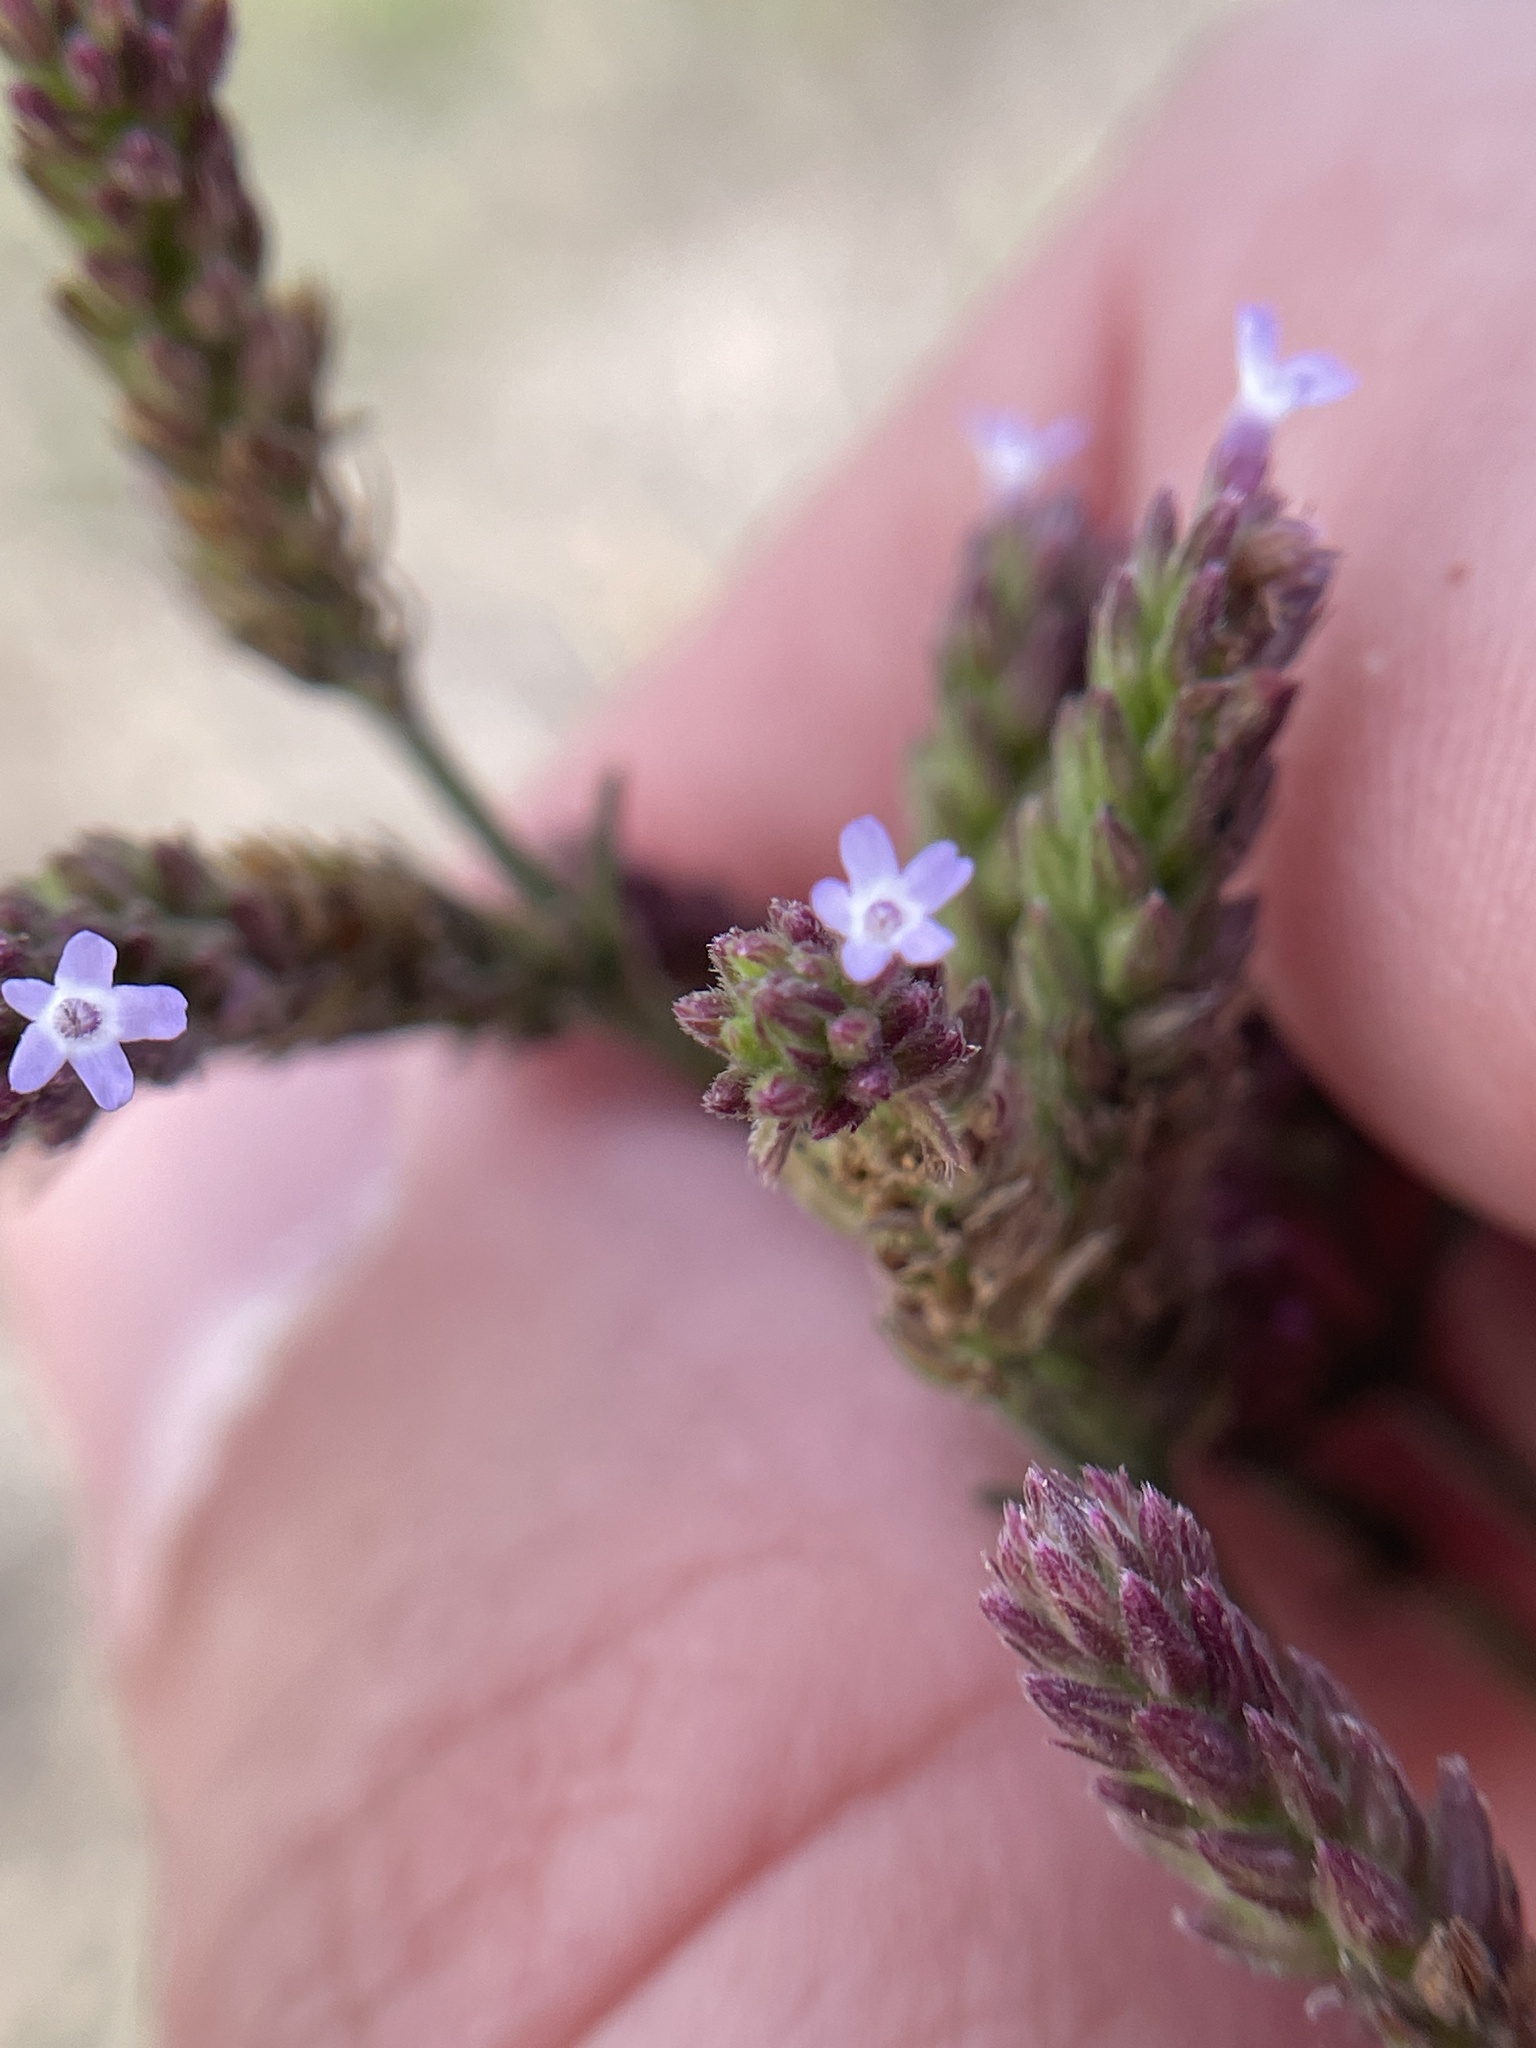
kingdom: Plantae
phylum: Tracheophyta
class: Magnoliopsida
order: Lamiales
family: Verbenaceae
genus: Verbena
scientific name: Verbena brasiliensis
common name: Brazilian vervain
